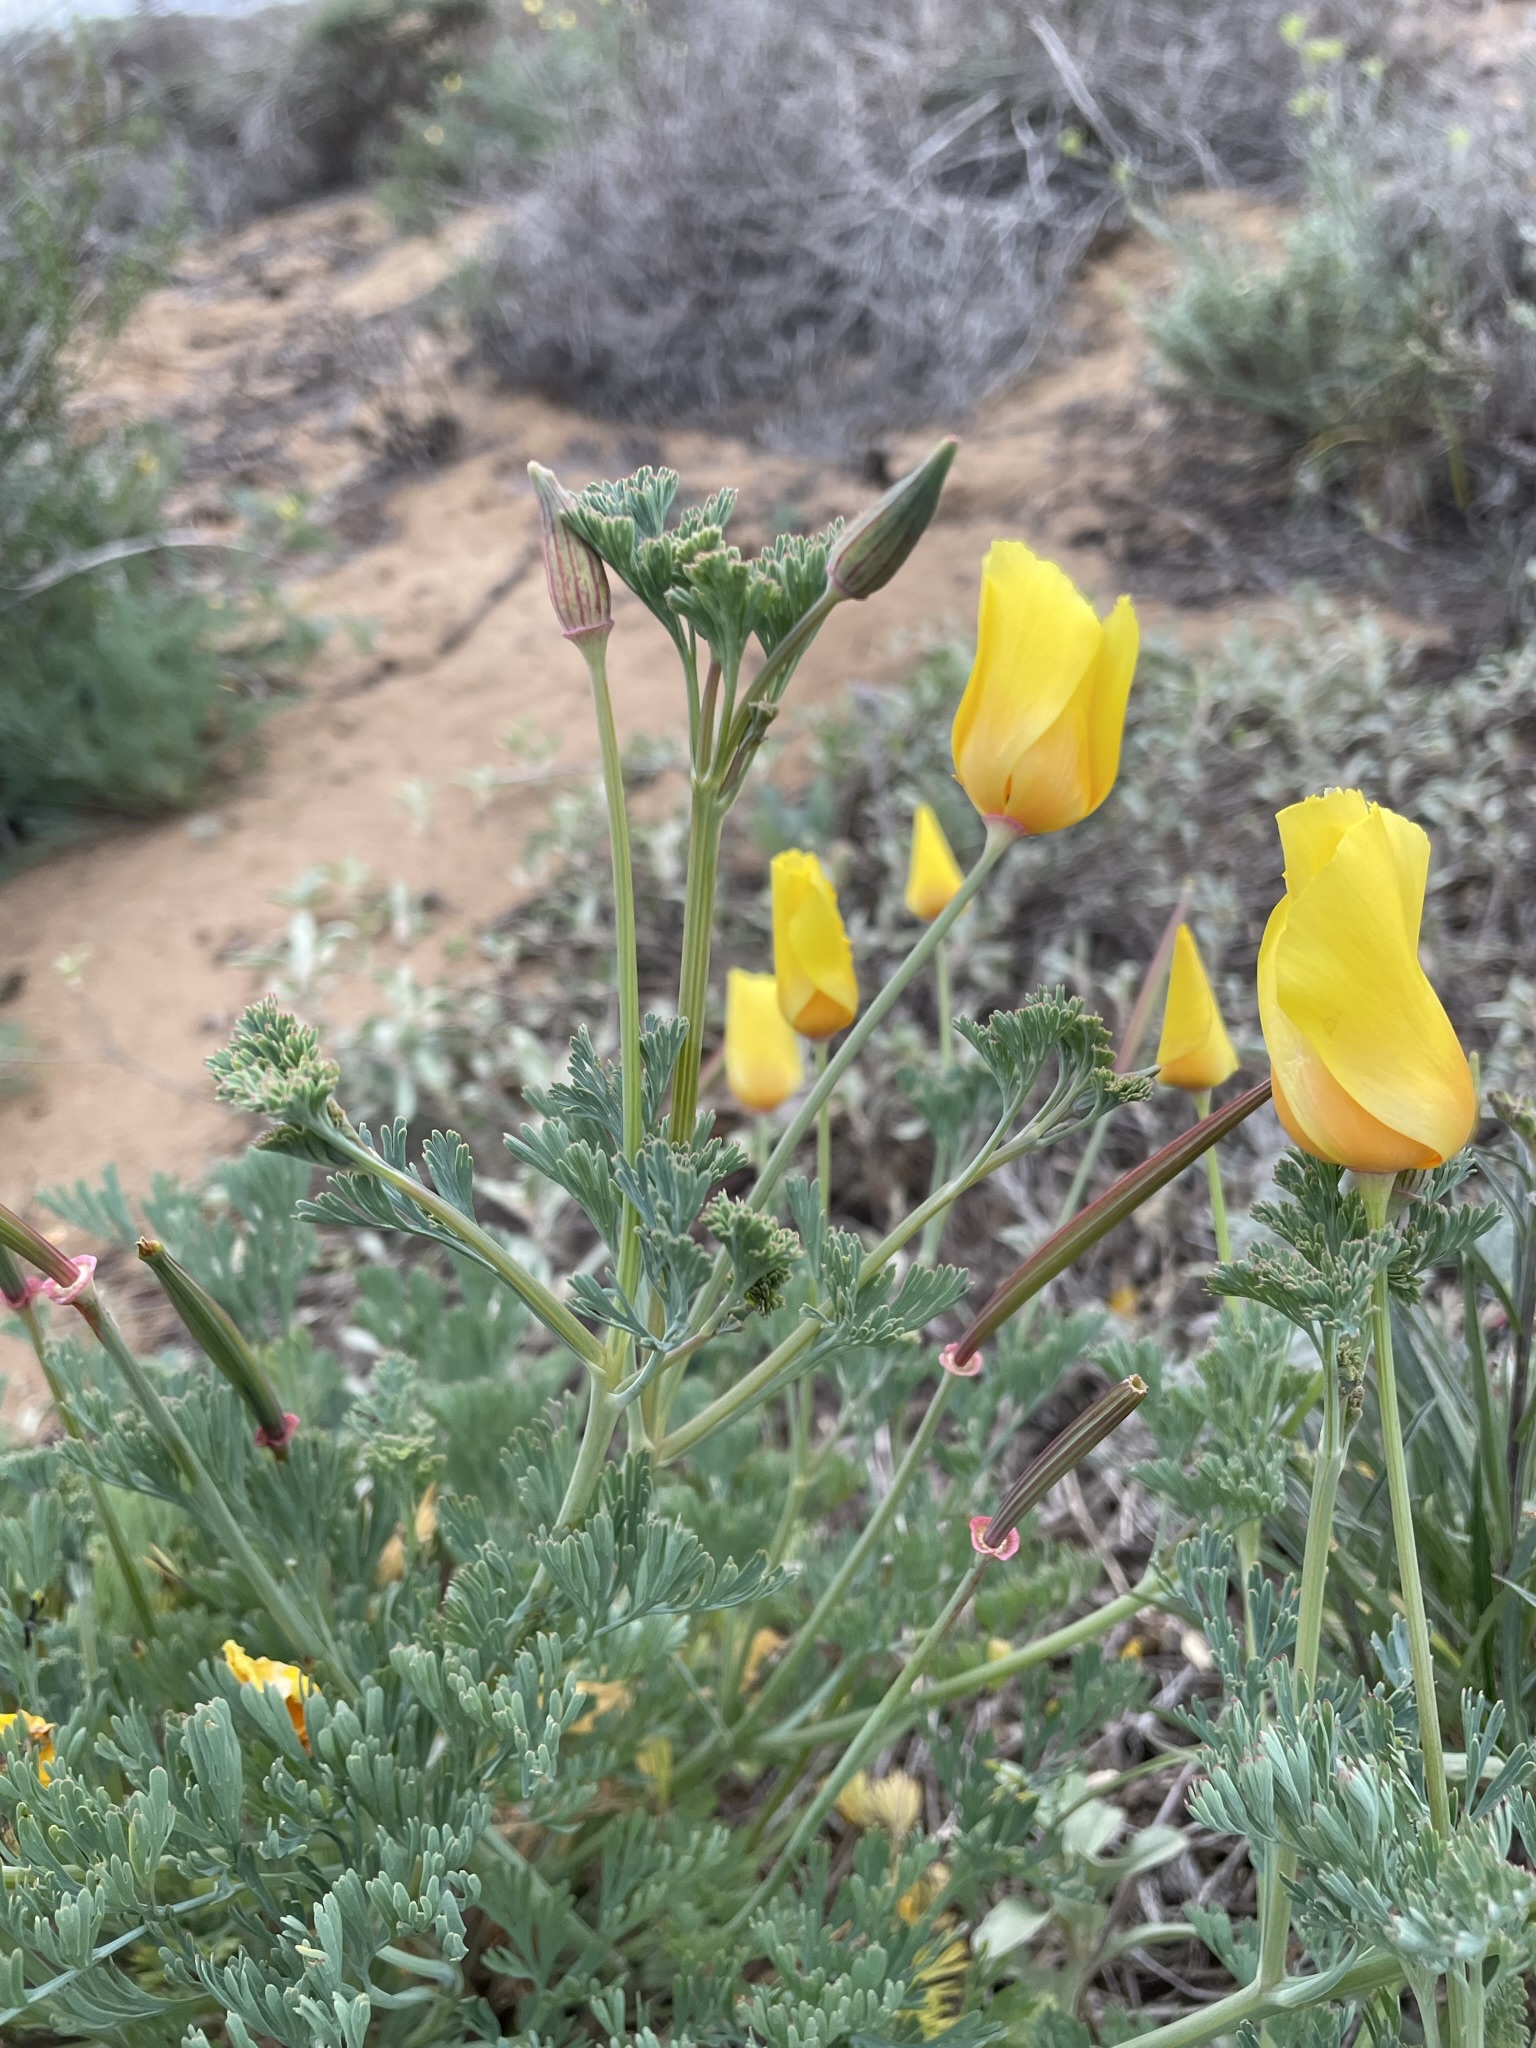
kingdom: Plantae
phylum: Tracheophyta
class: Magnoliopsida
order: Ranunculales
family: Papaveraceae
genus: Eschscholzia
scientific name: Eschscholzia californica
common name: California poppy
